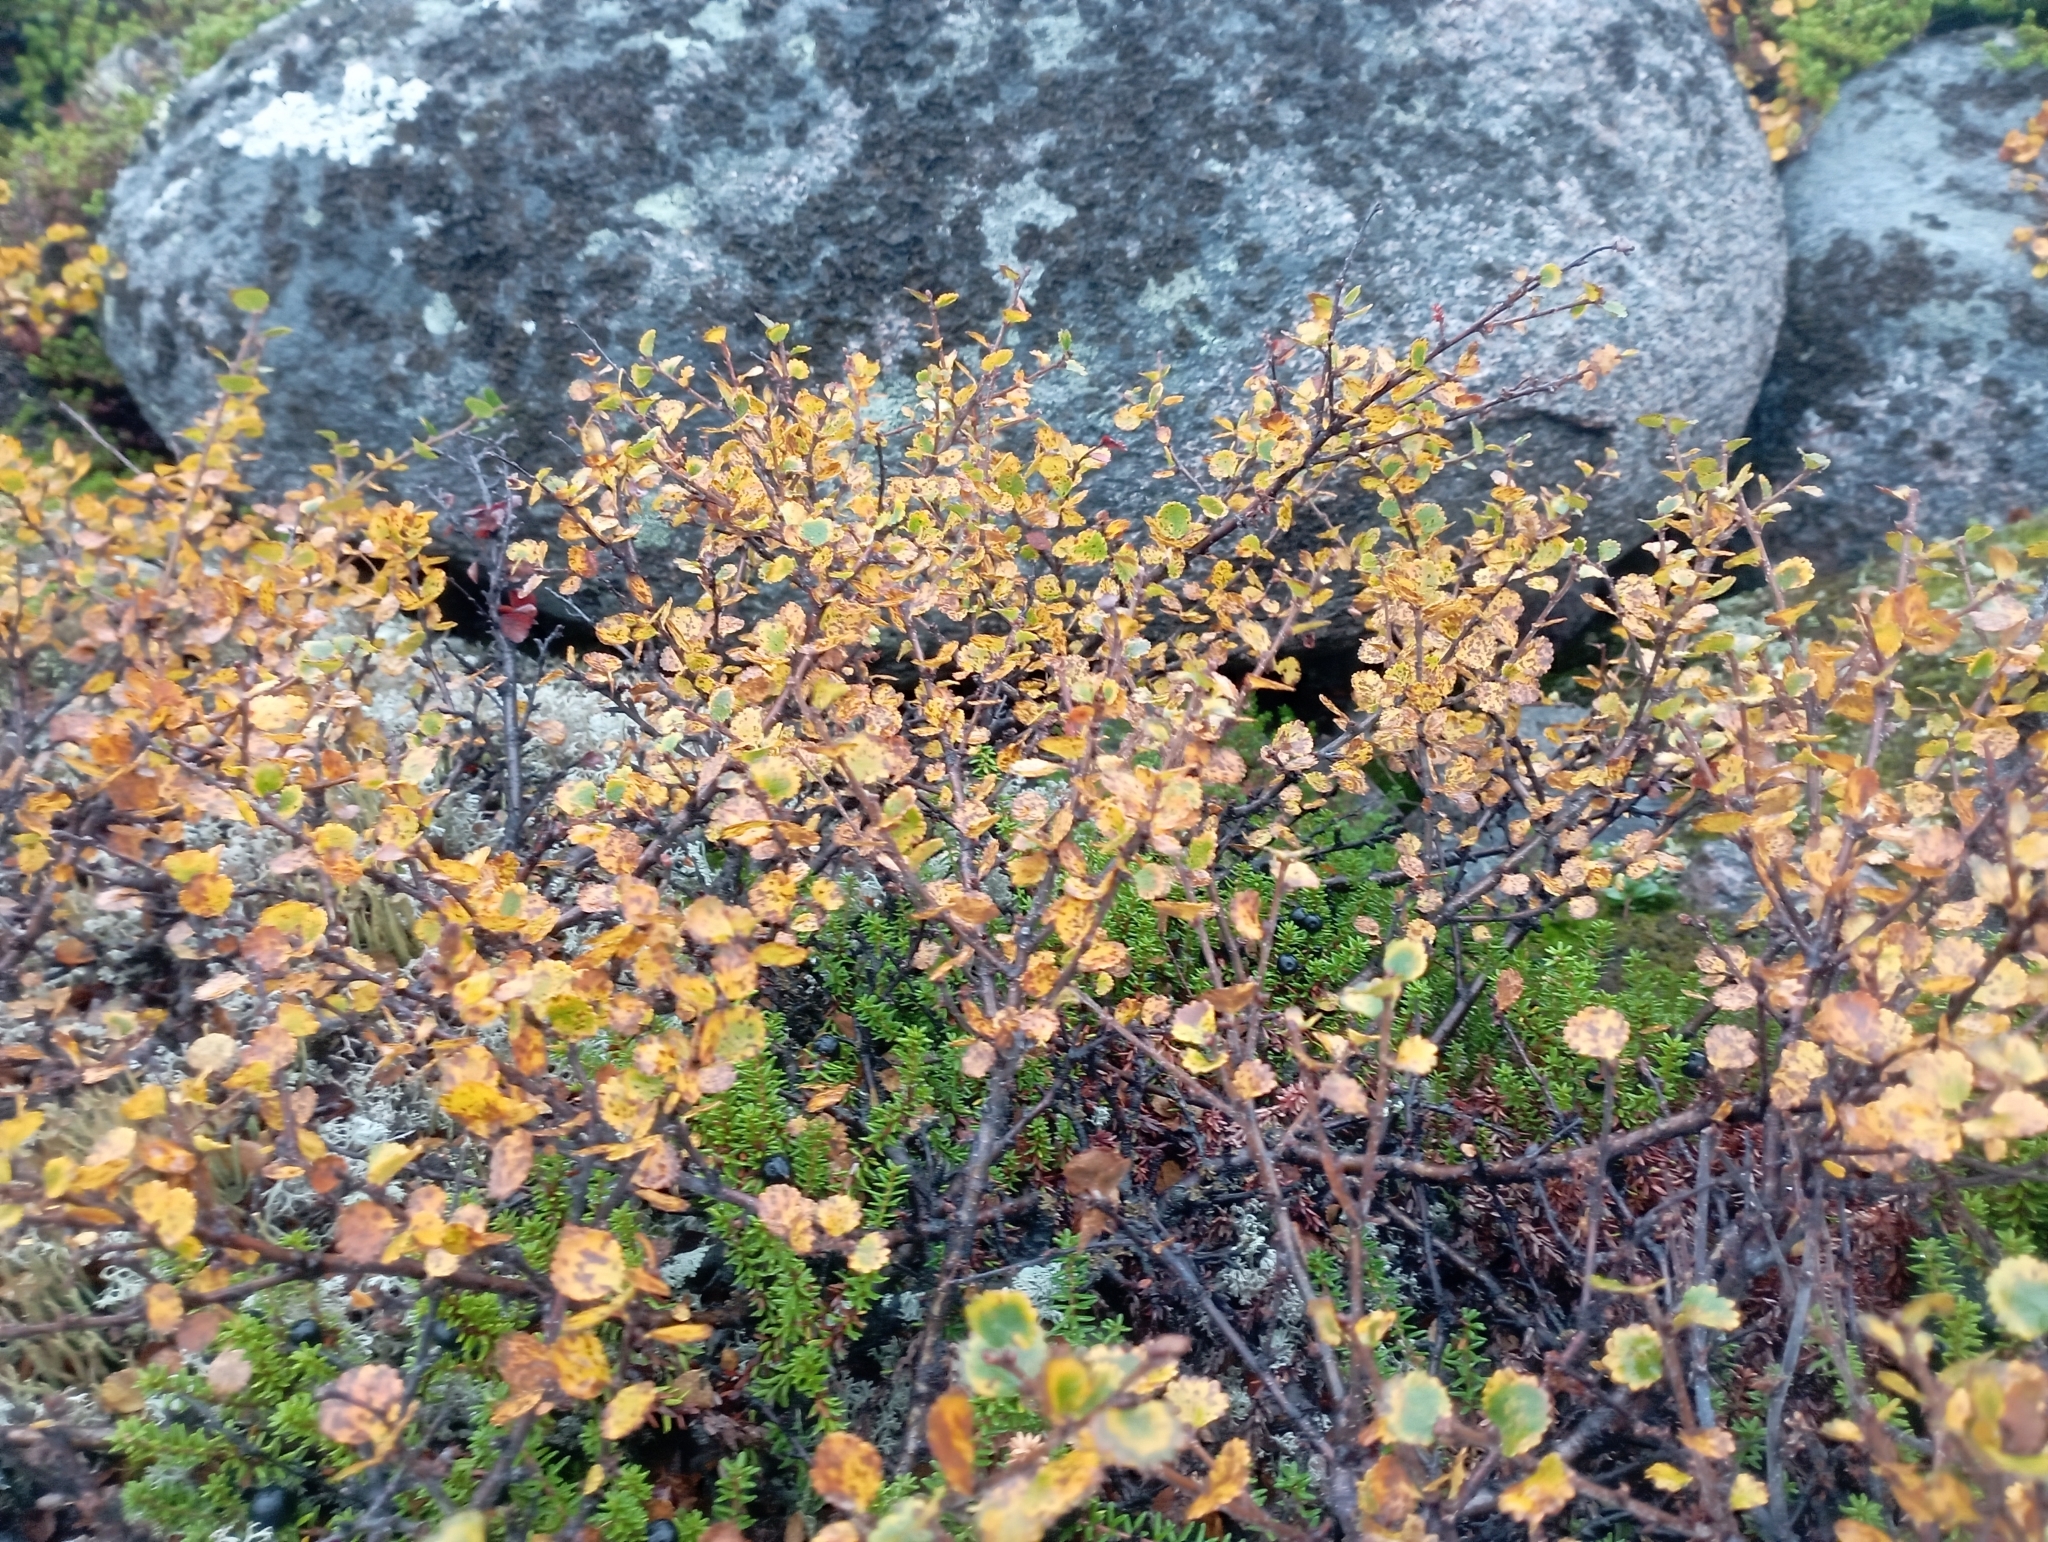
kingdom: Plantae
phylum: Tracheophyta
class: Magnoliopsida
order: Fagales
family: Betulaceae
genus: Betula
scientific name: Betula nana
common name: Arctic dwarf birch
